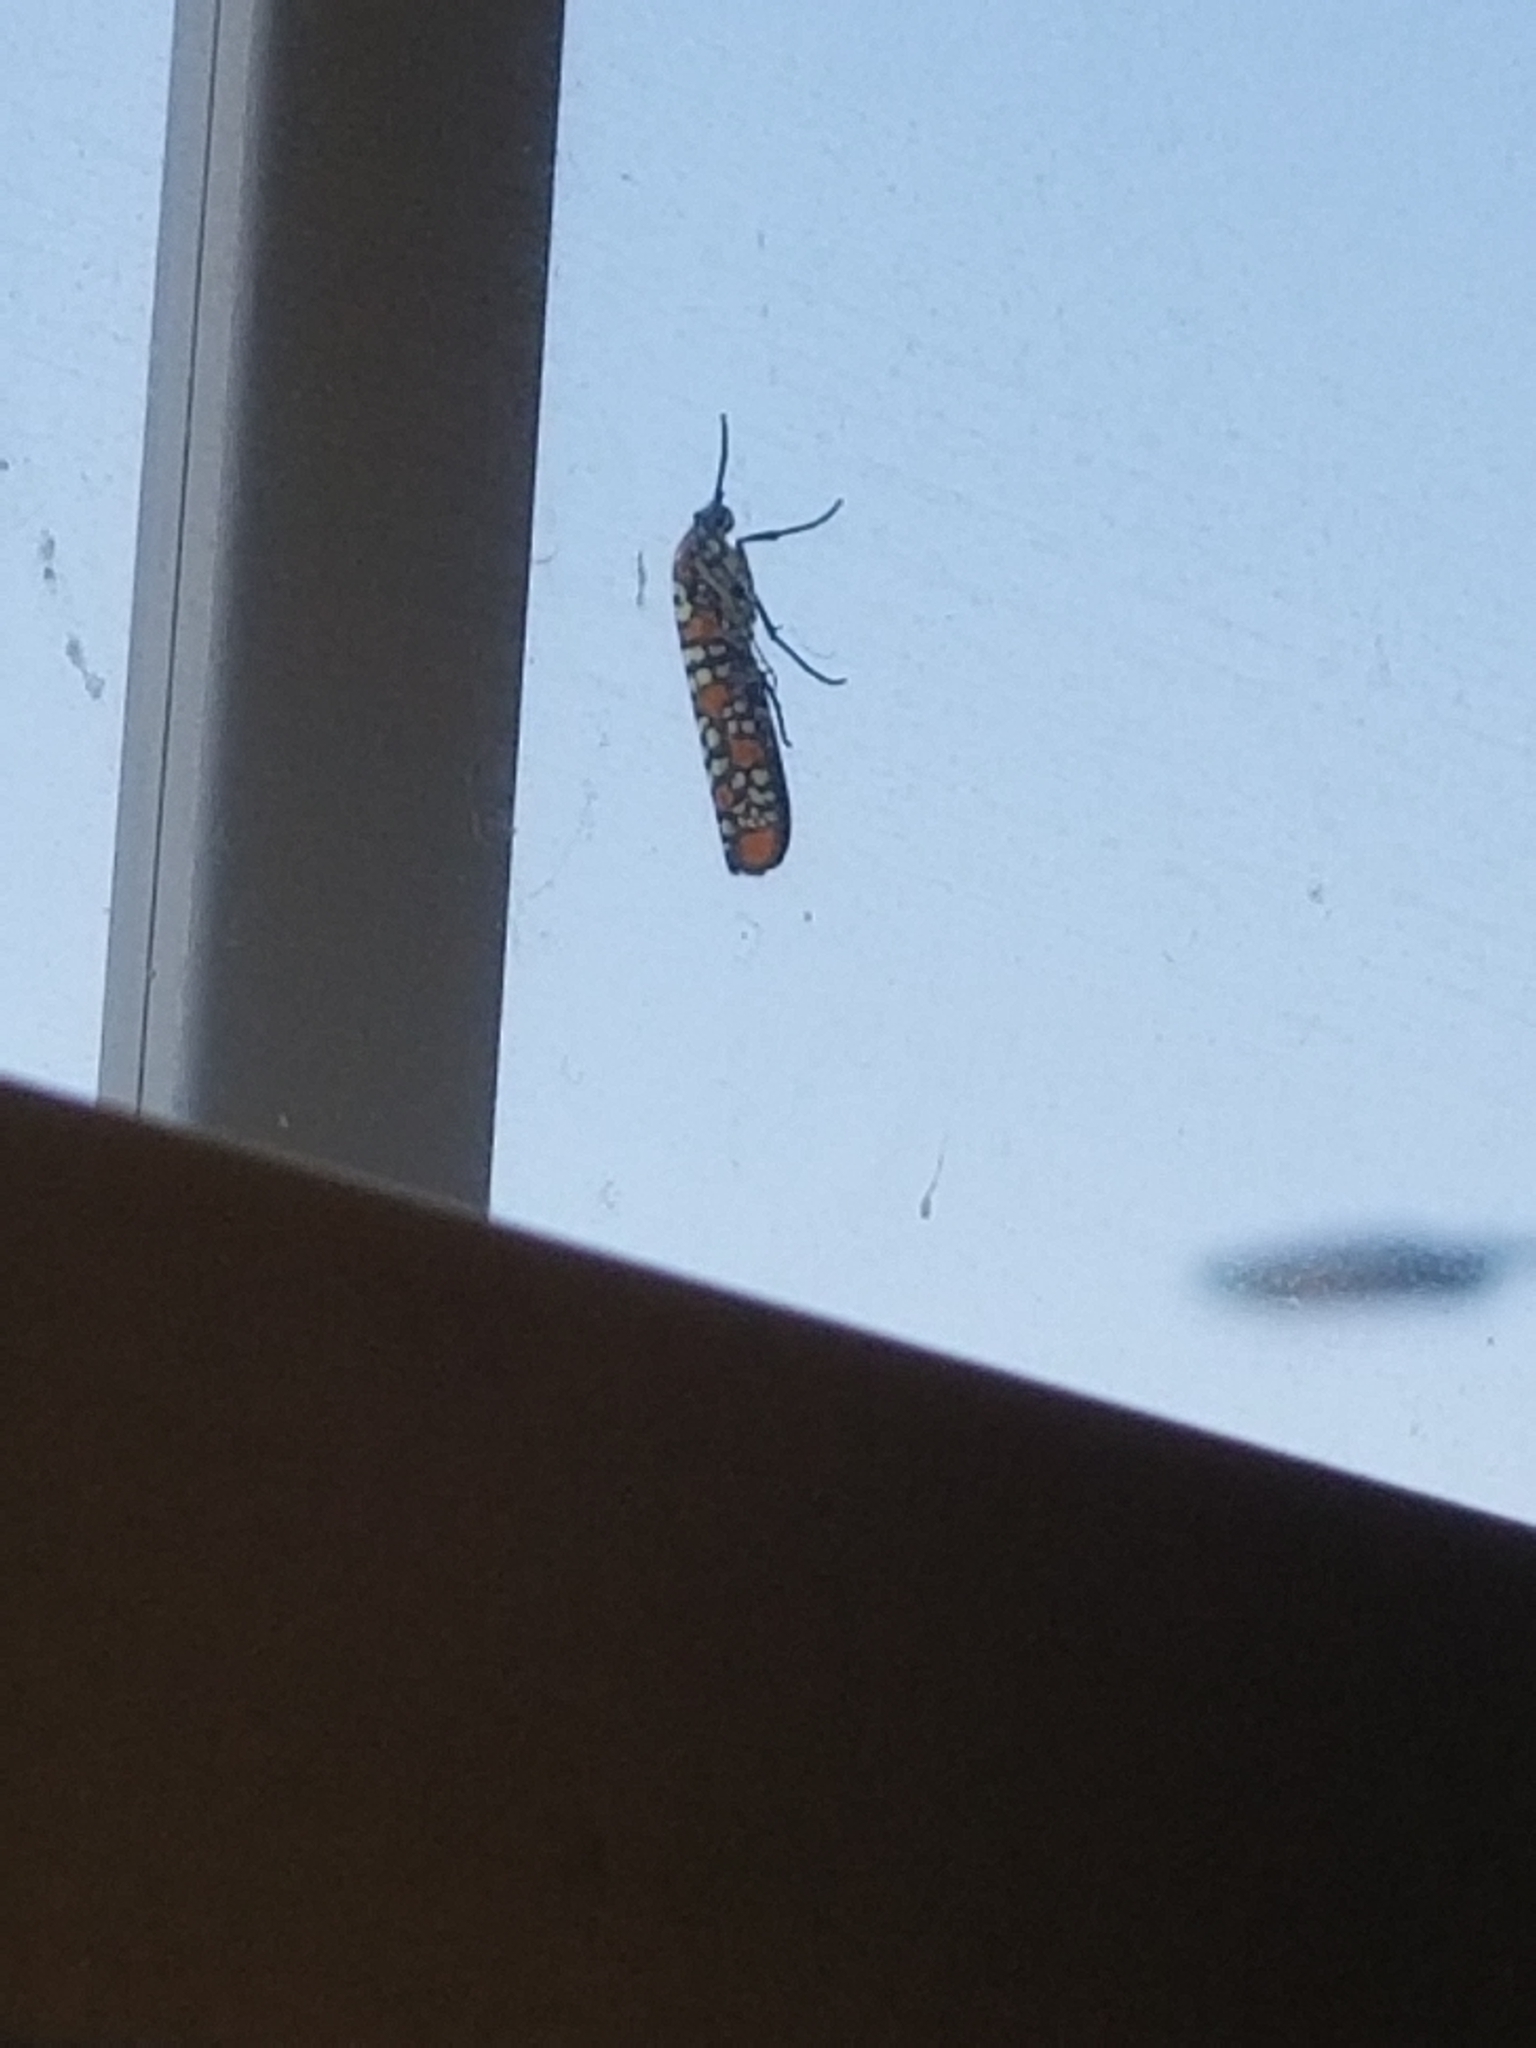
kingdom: Animalia
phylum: Arthropoda
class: Insecta
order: Lepidoptera
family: Attevidae
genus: Atteva
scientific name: Atteva punctella
